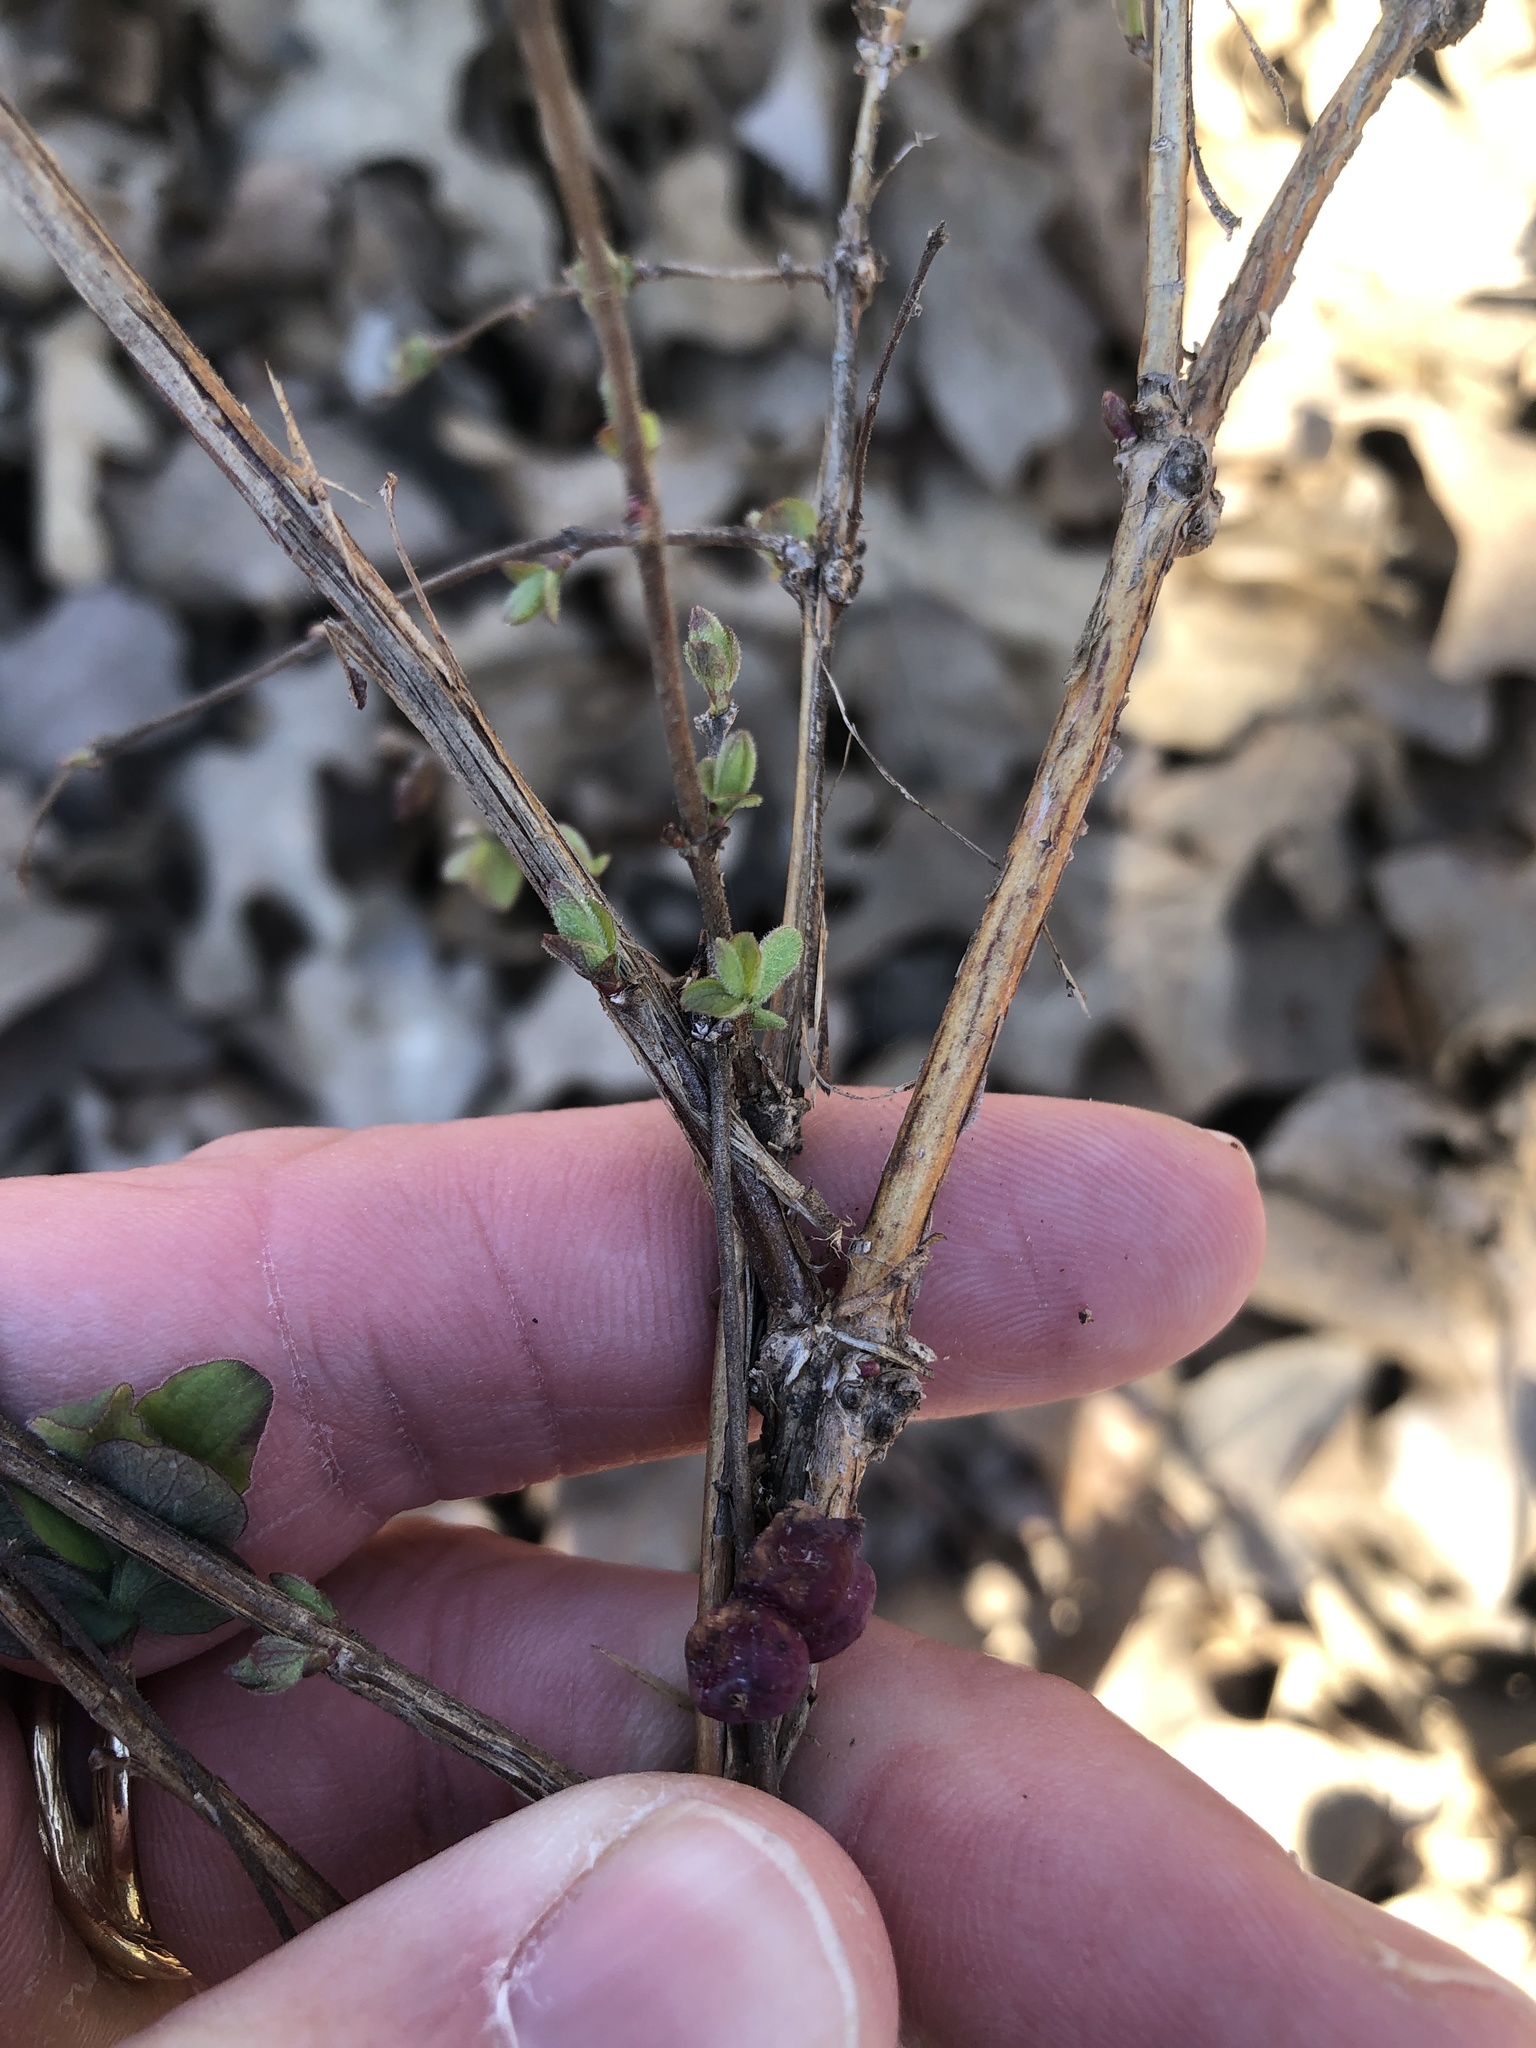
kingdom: Plantae
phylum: Tracheophyta
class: Magnoliopsida
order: Dipsacales
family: Caprifoliaceae
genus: Symphoricarpos
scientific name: Symphoricarpos orbiculatus
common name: Coralberry
